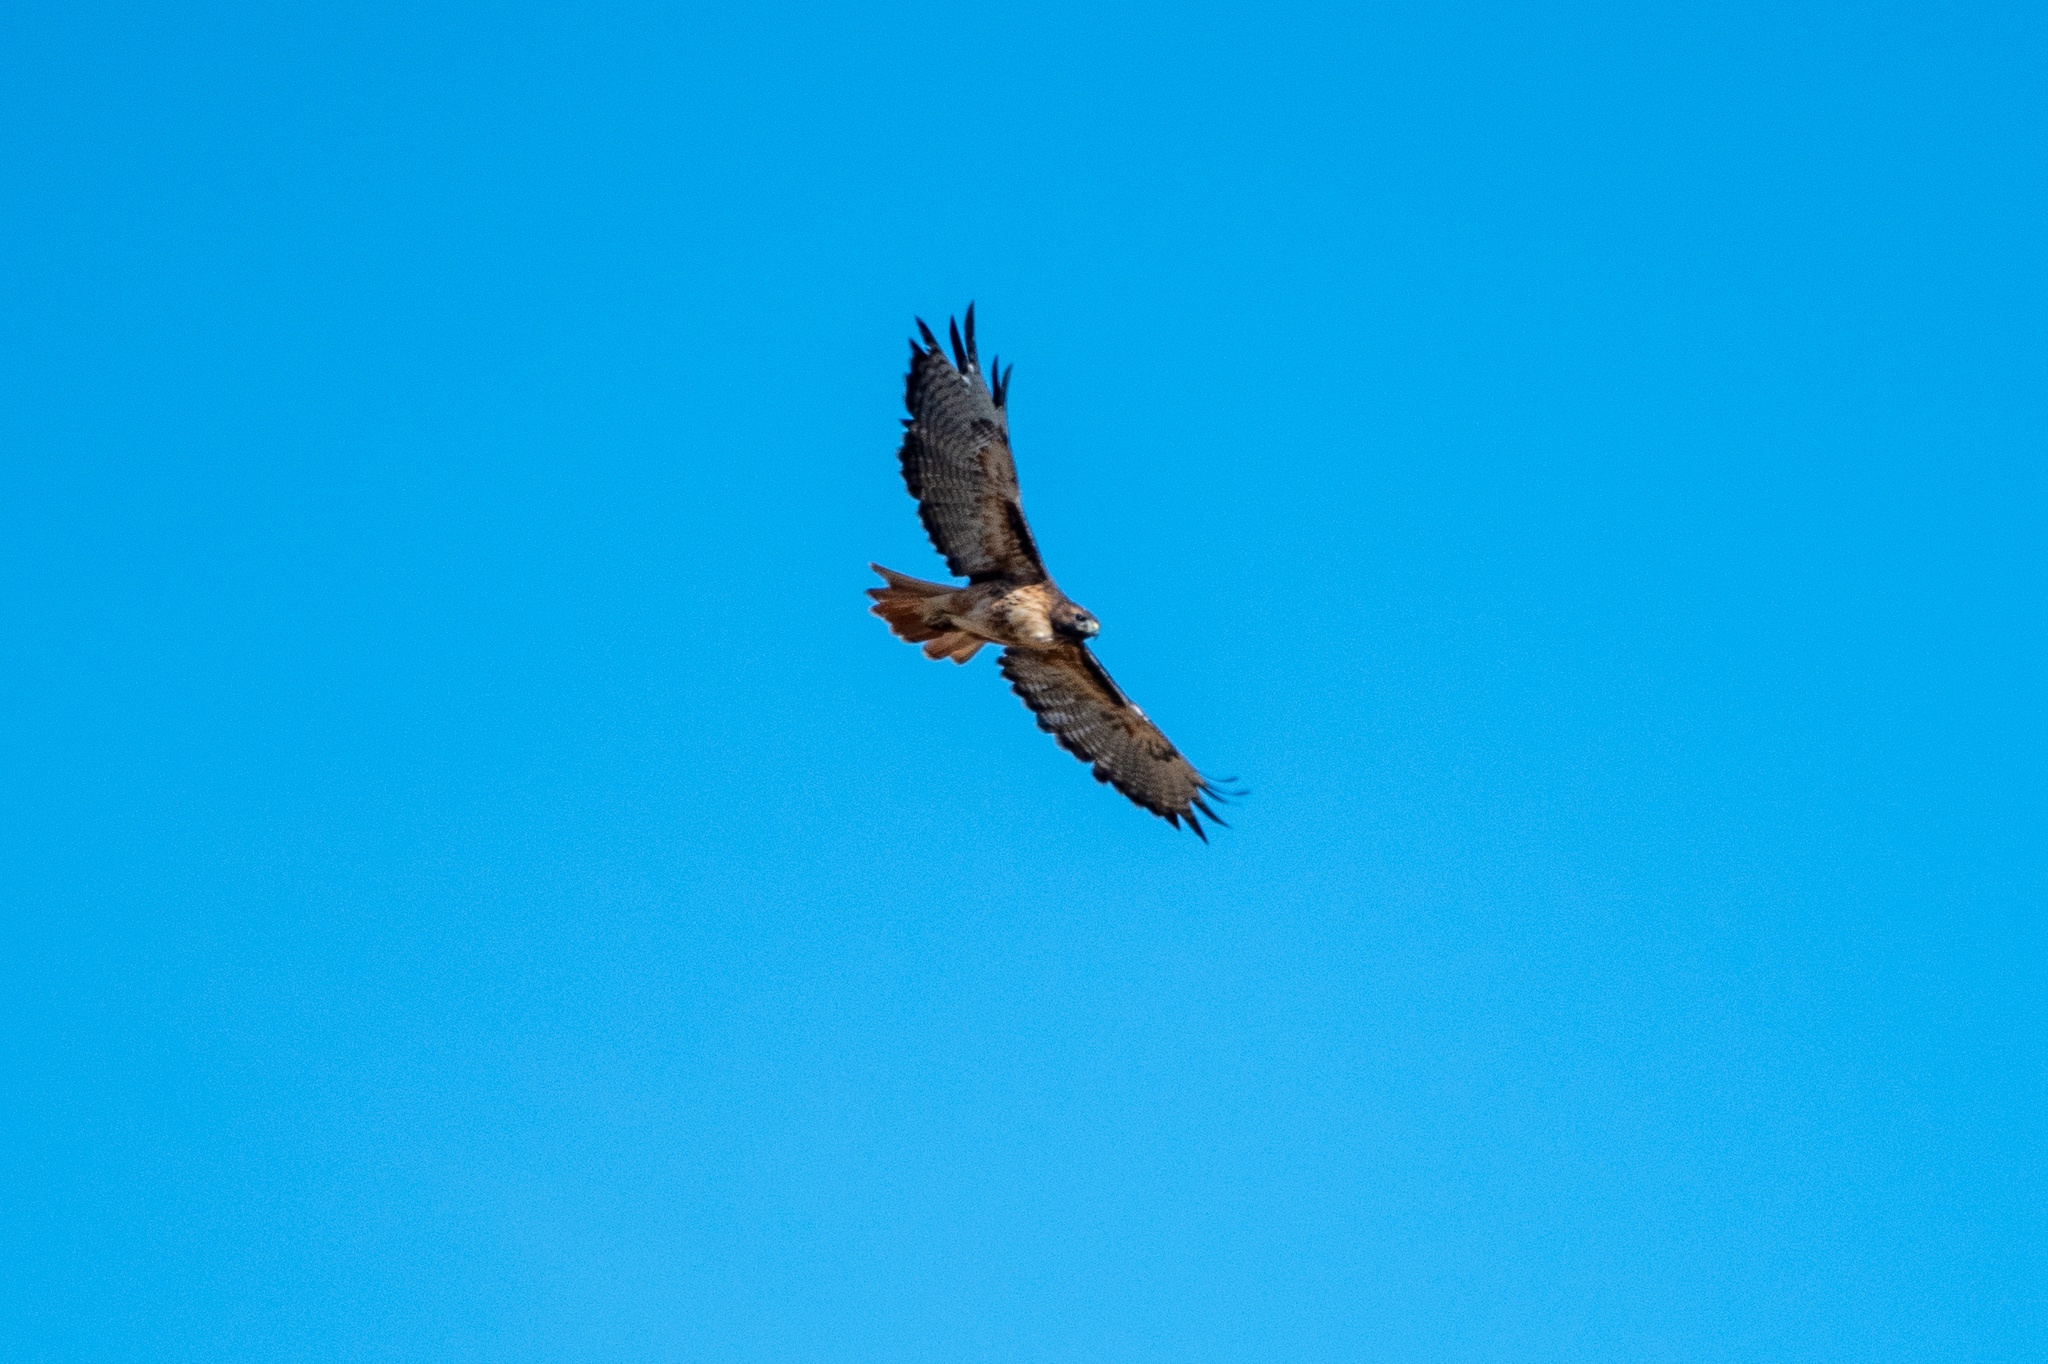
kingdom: Animalia
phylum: Chordata
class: Aves
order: Accipitriformes
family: Accipitridae
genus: Buteo
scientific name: Buteo jamaicensis
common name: Red-tailed hawk
